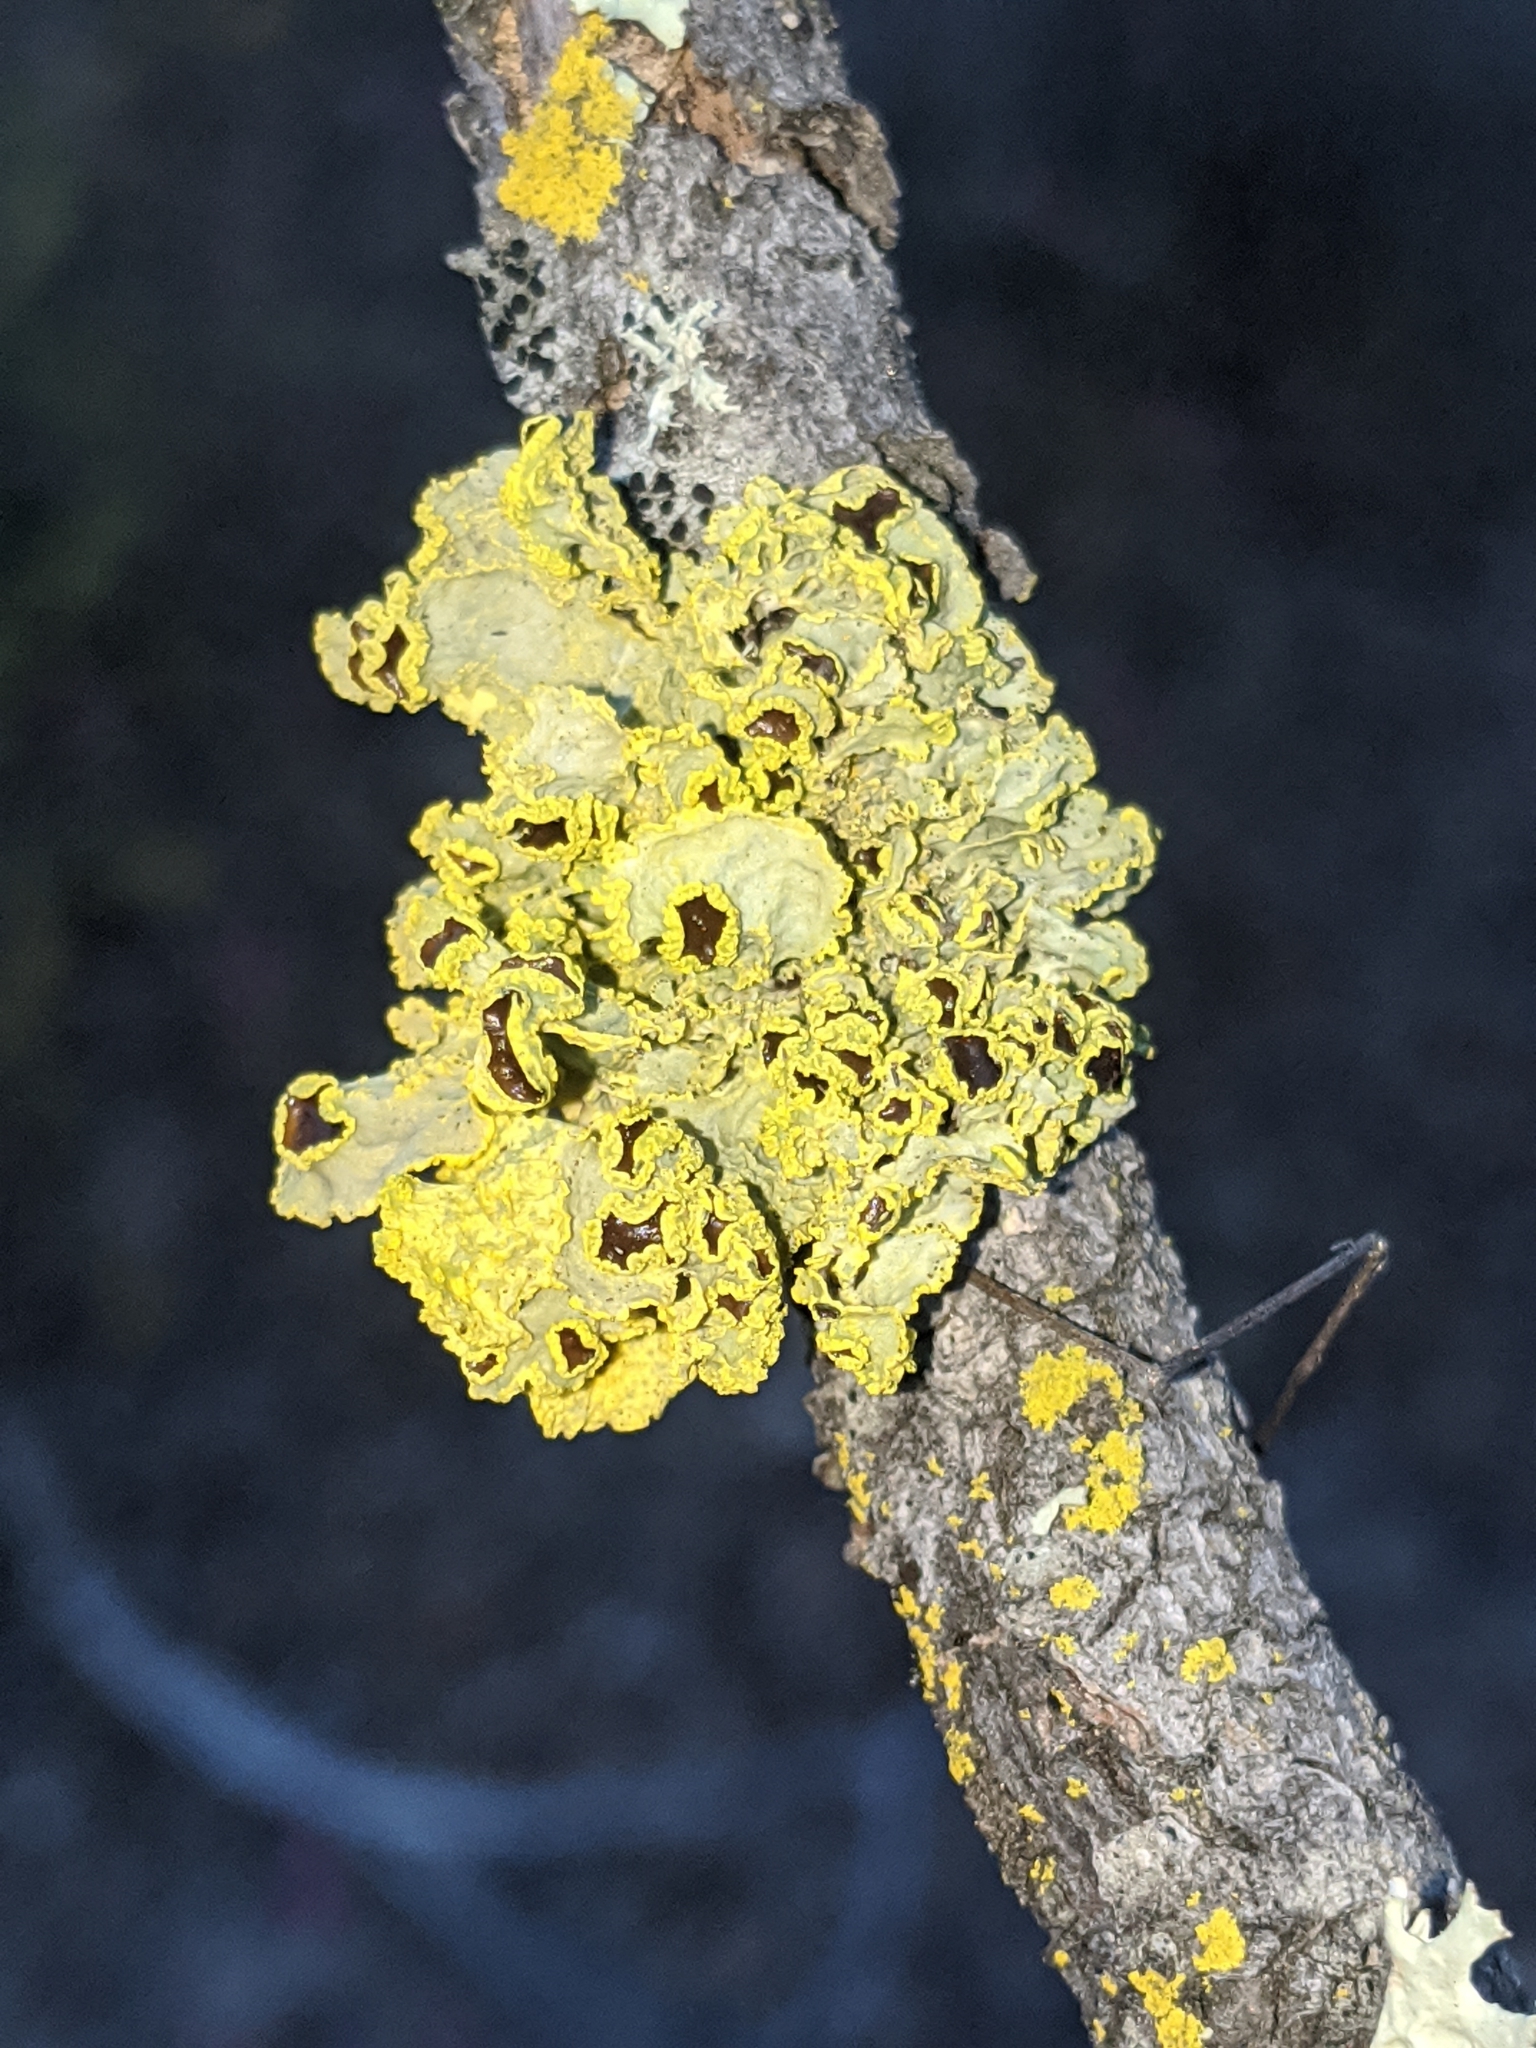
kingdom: Fungi
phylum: Ascomycota
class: Lecanoromycetes
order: Lecanorales
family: Parmeliaceae
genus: Vulpicida
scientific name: Vulpicida canadensis
